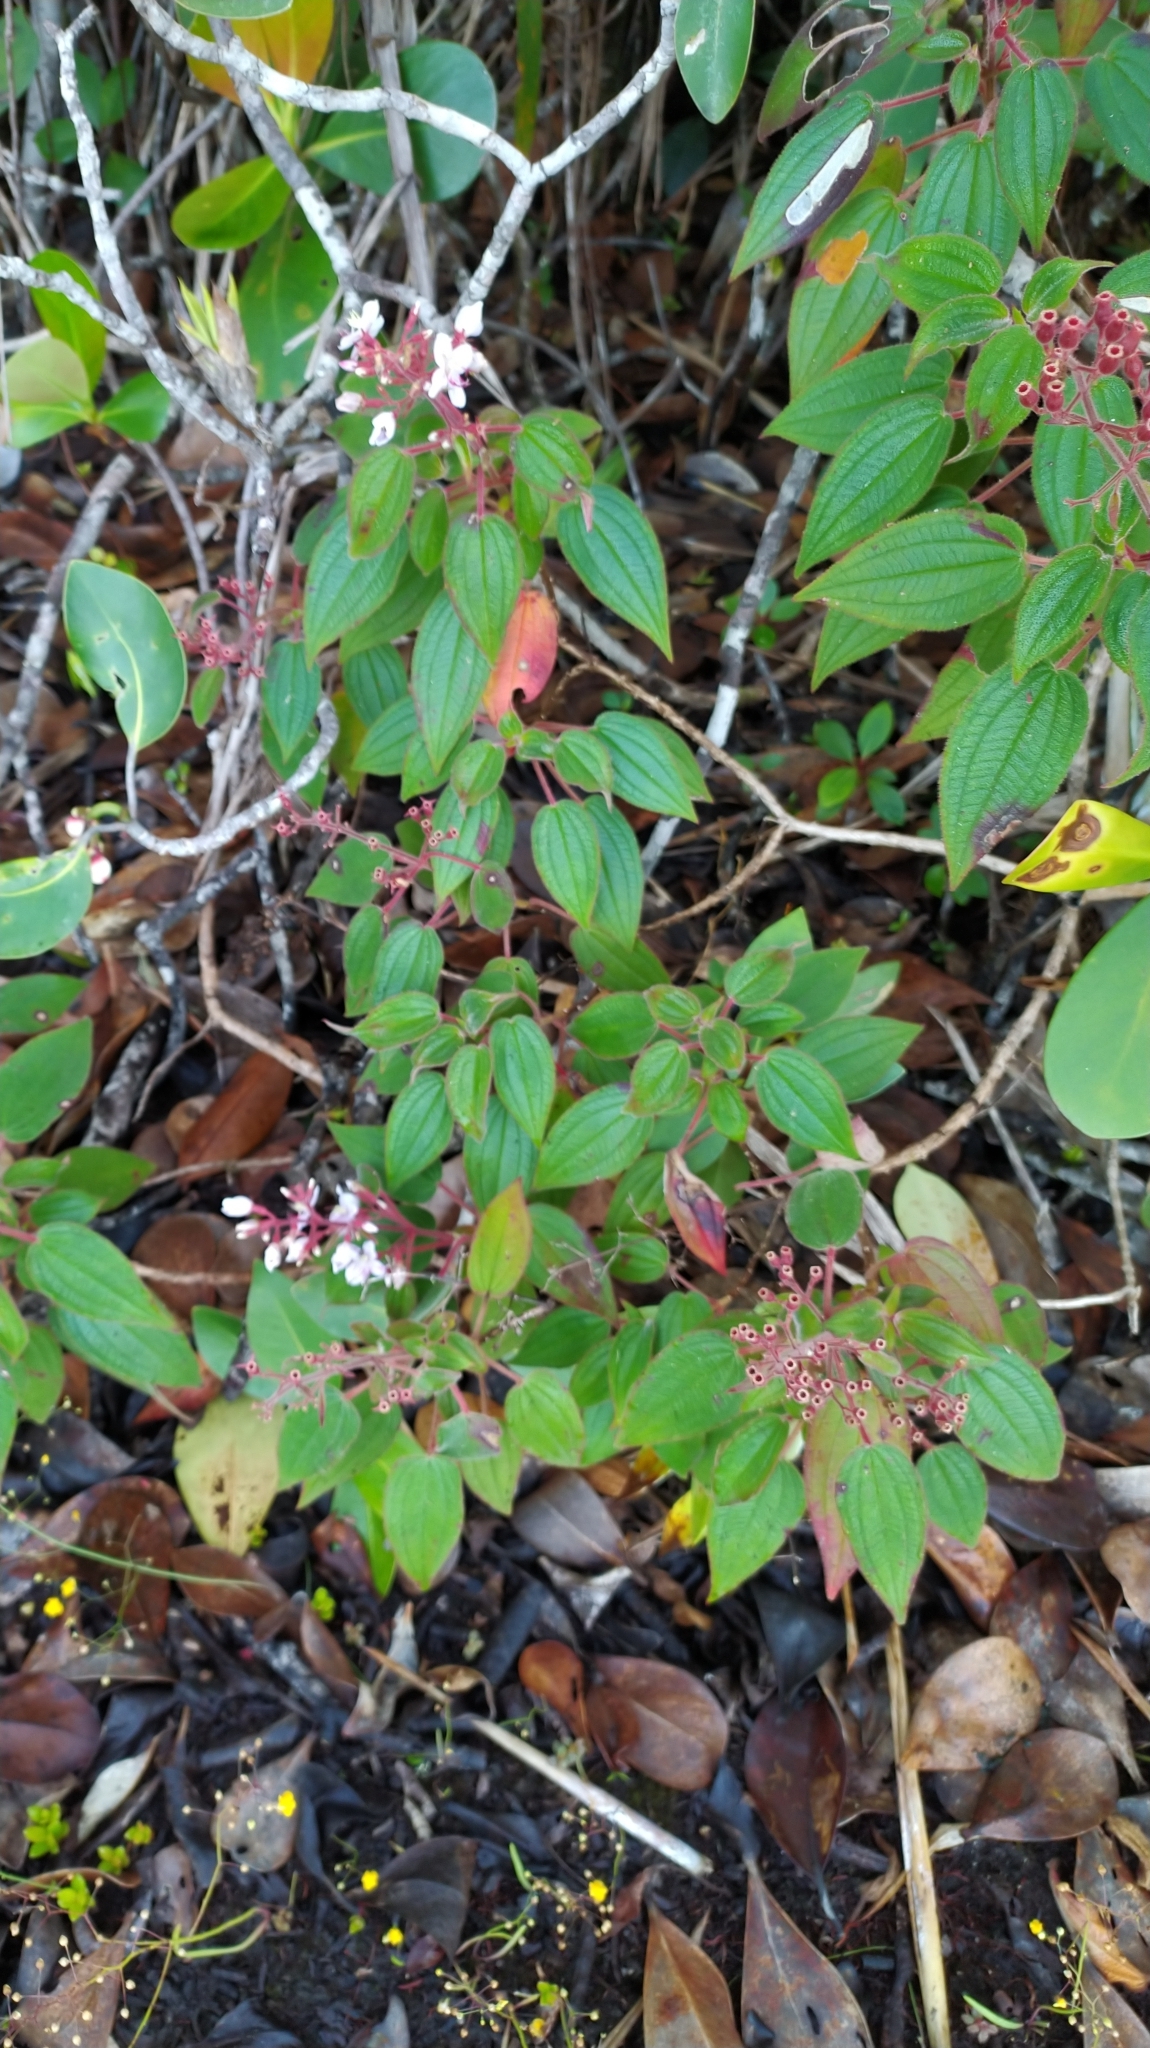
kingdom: Plantae
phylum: Tracheophyta
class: Magnoliopsida
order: Myrtales
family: Melastomataceae
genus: Ernestia
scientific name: Ernestia granvillei
